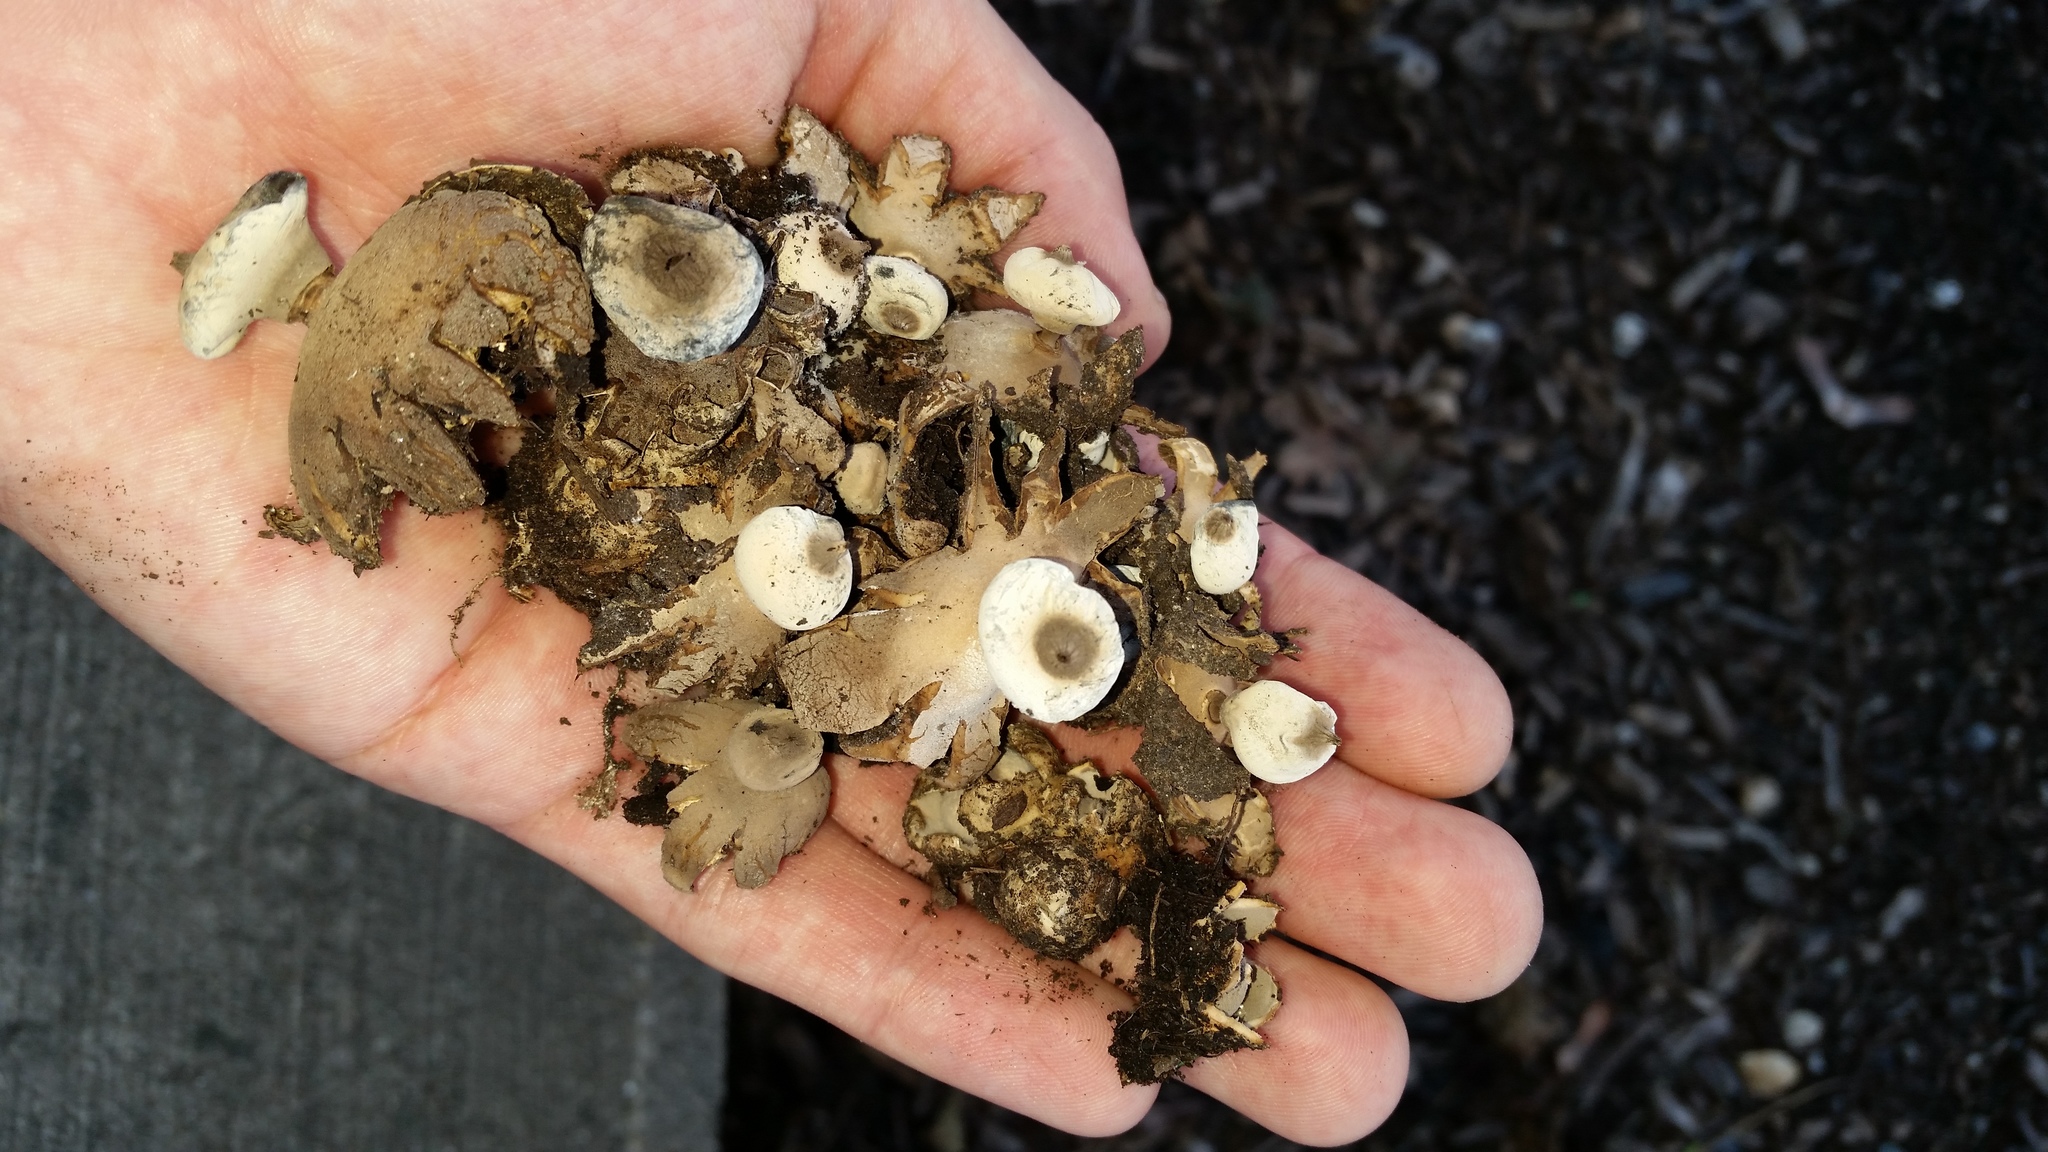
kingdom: Fungi
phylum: Basidiomycota
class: Agaricomycetes
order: Geastrales
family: Geastraceae
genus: Geastrum
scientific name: Geastrum striatum
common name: Striate earthstar
